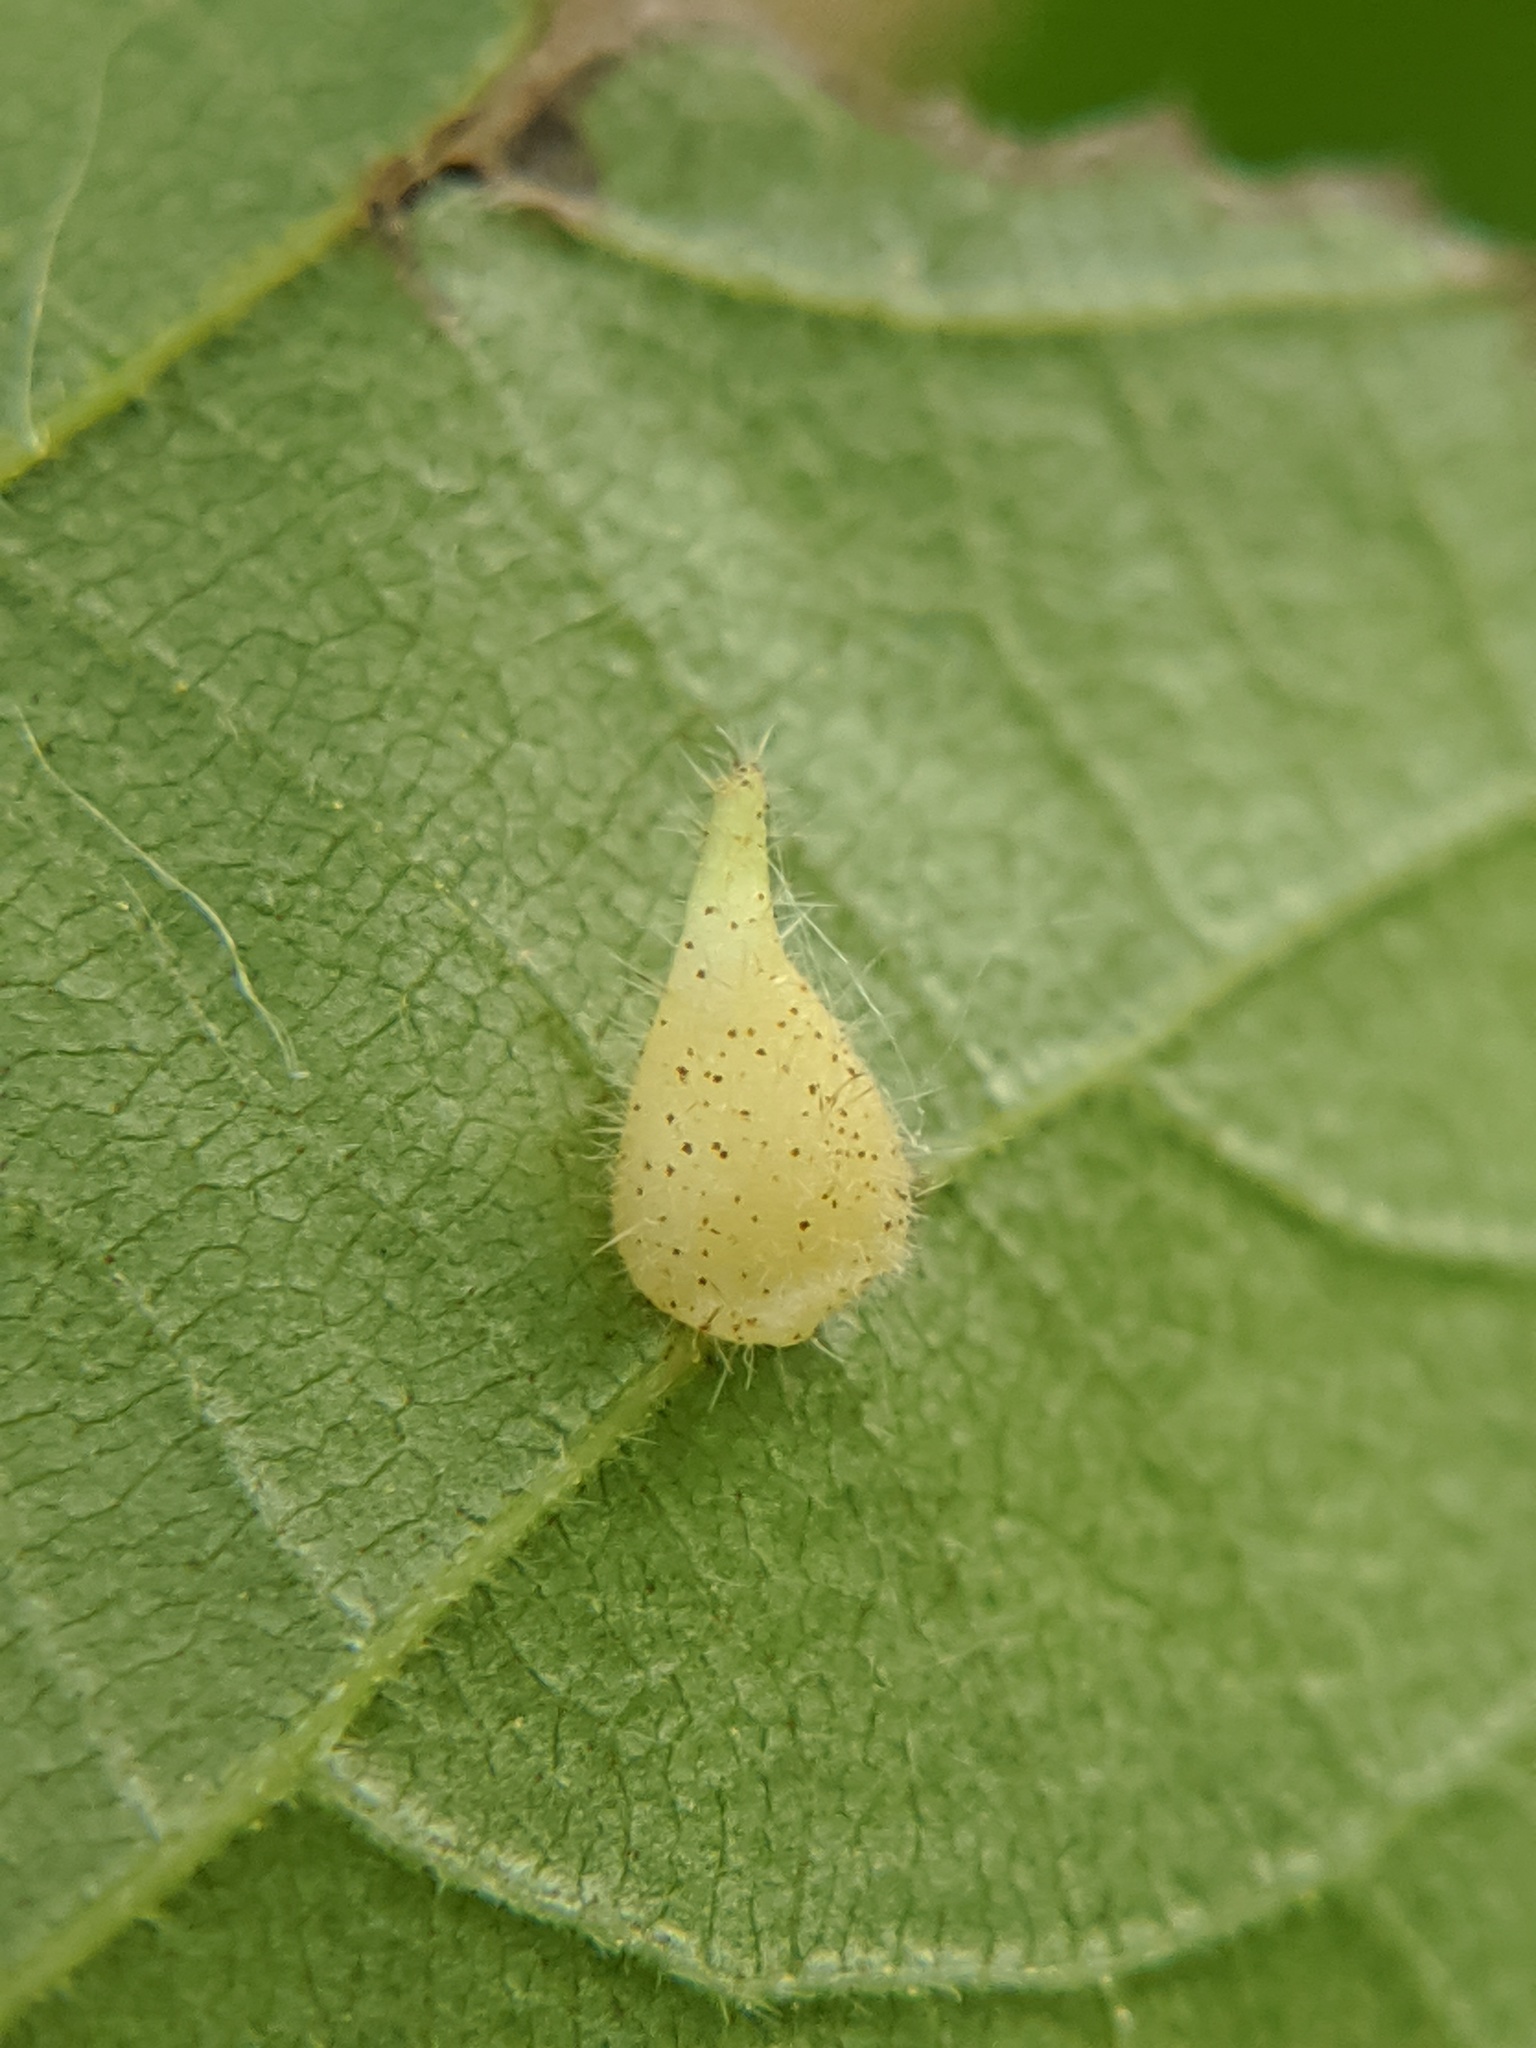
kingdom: Animalia
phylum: Arthropoda
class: Insecta
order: Diptera
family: Cecidomyiidae
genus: Caryomyia
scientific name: Caryomyia inclinata
